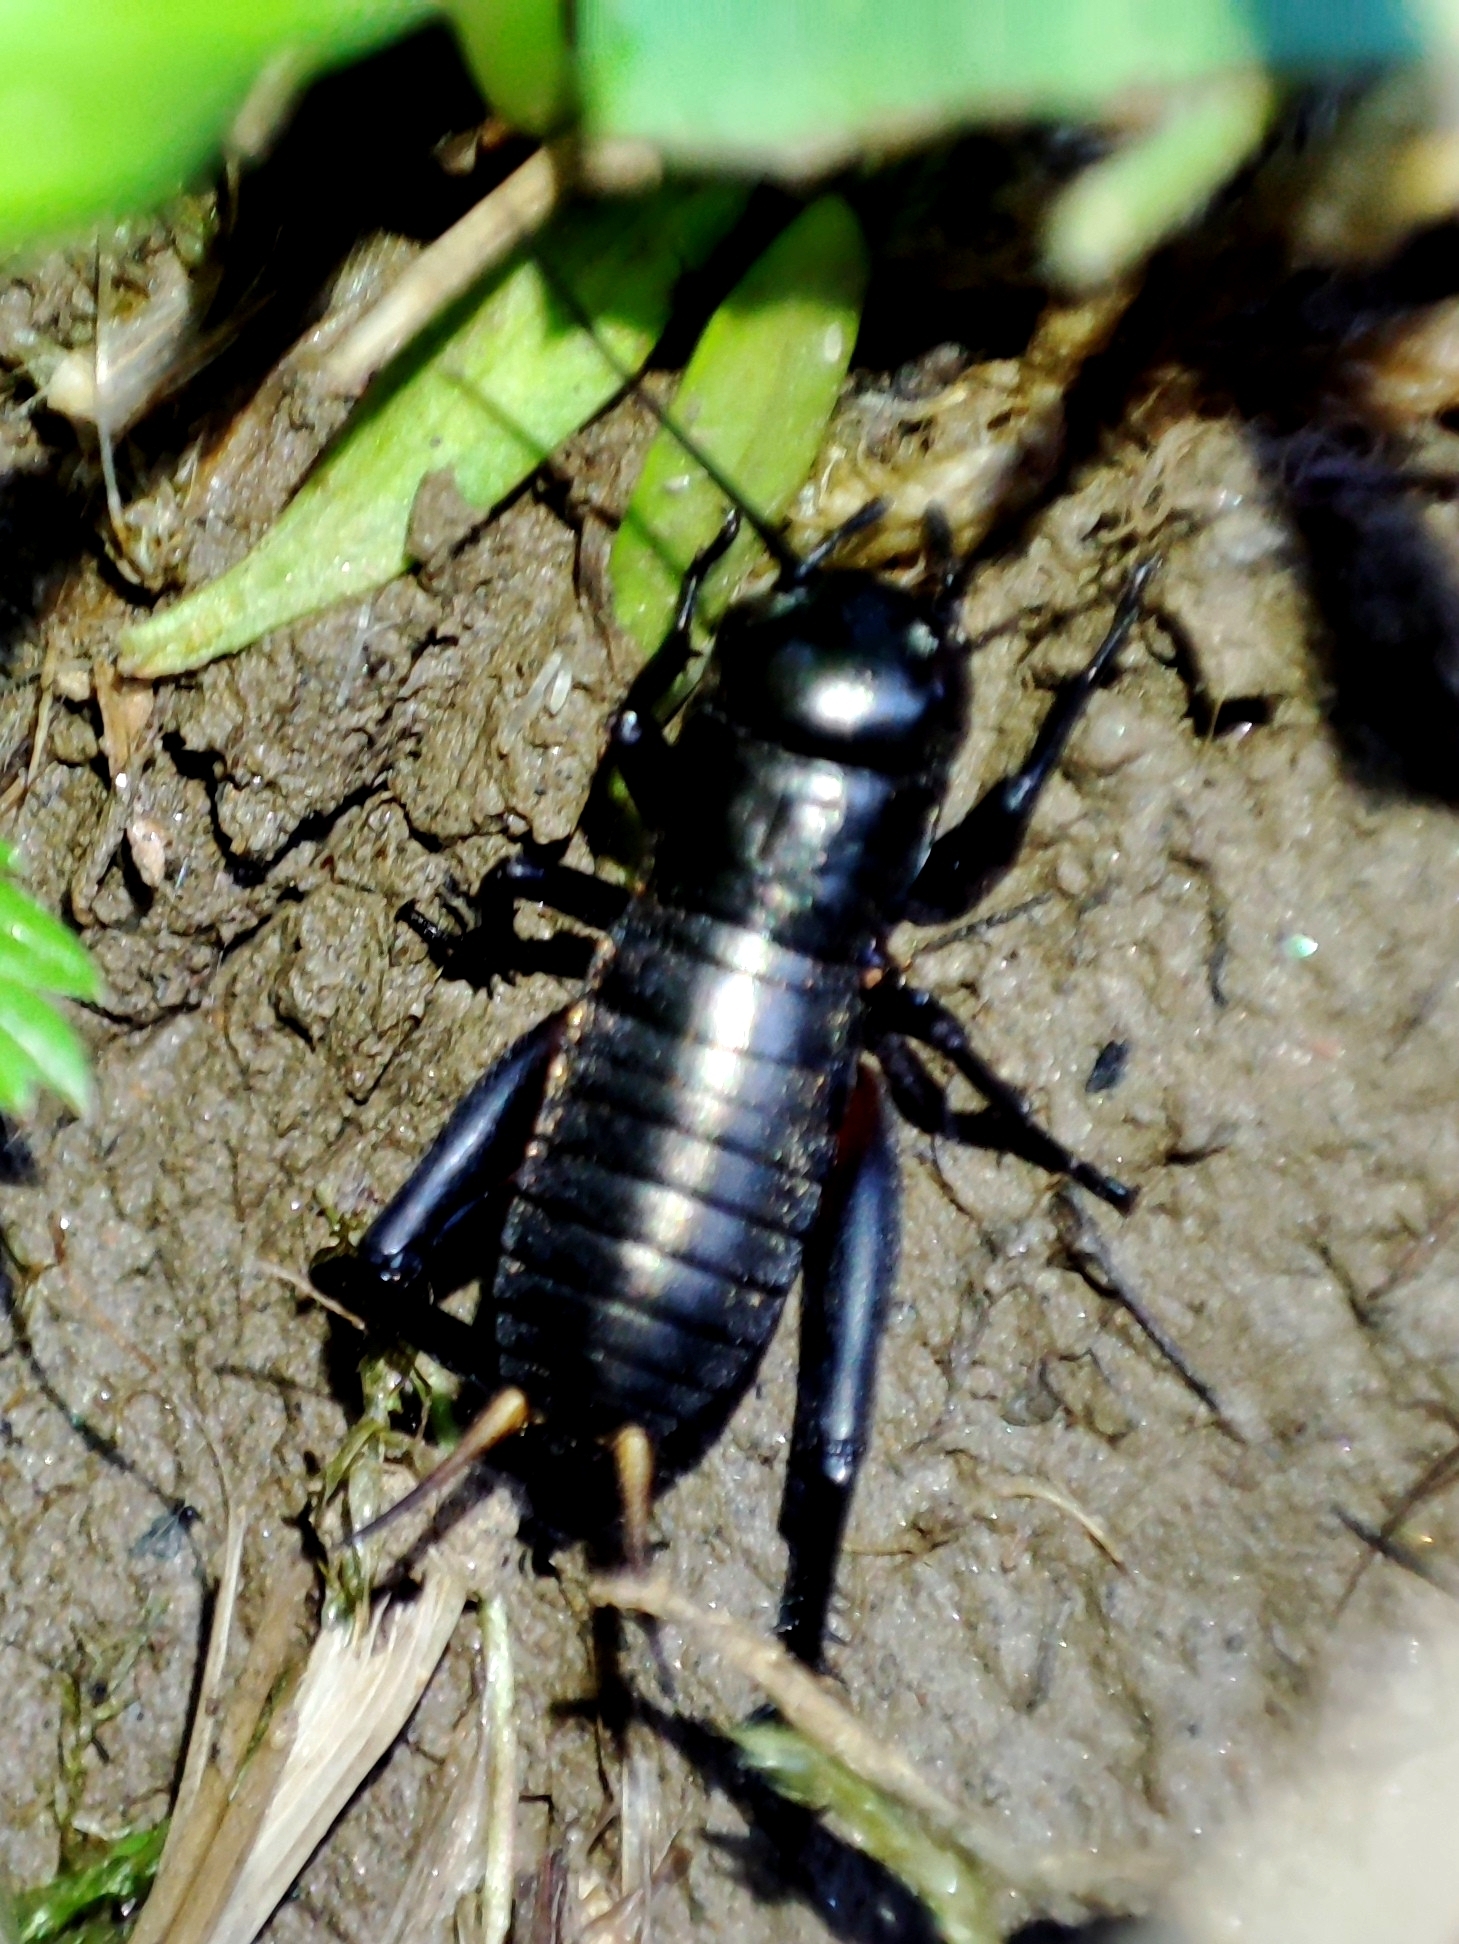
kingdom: Animalia
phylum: Arthropoda
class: Insecta
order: Orthoptera
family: Gryllidae
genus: Gryllus
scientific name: Gryllus campestris
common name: Field cricket
